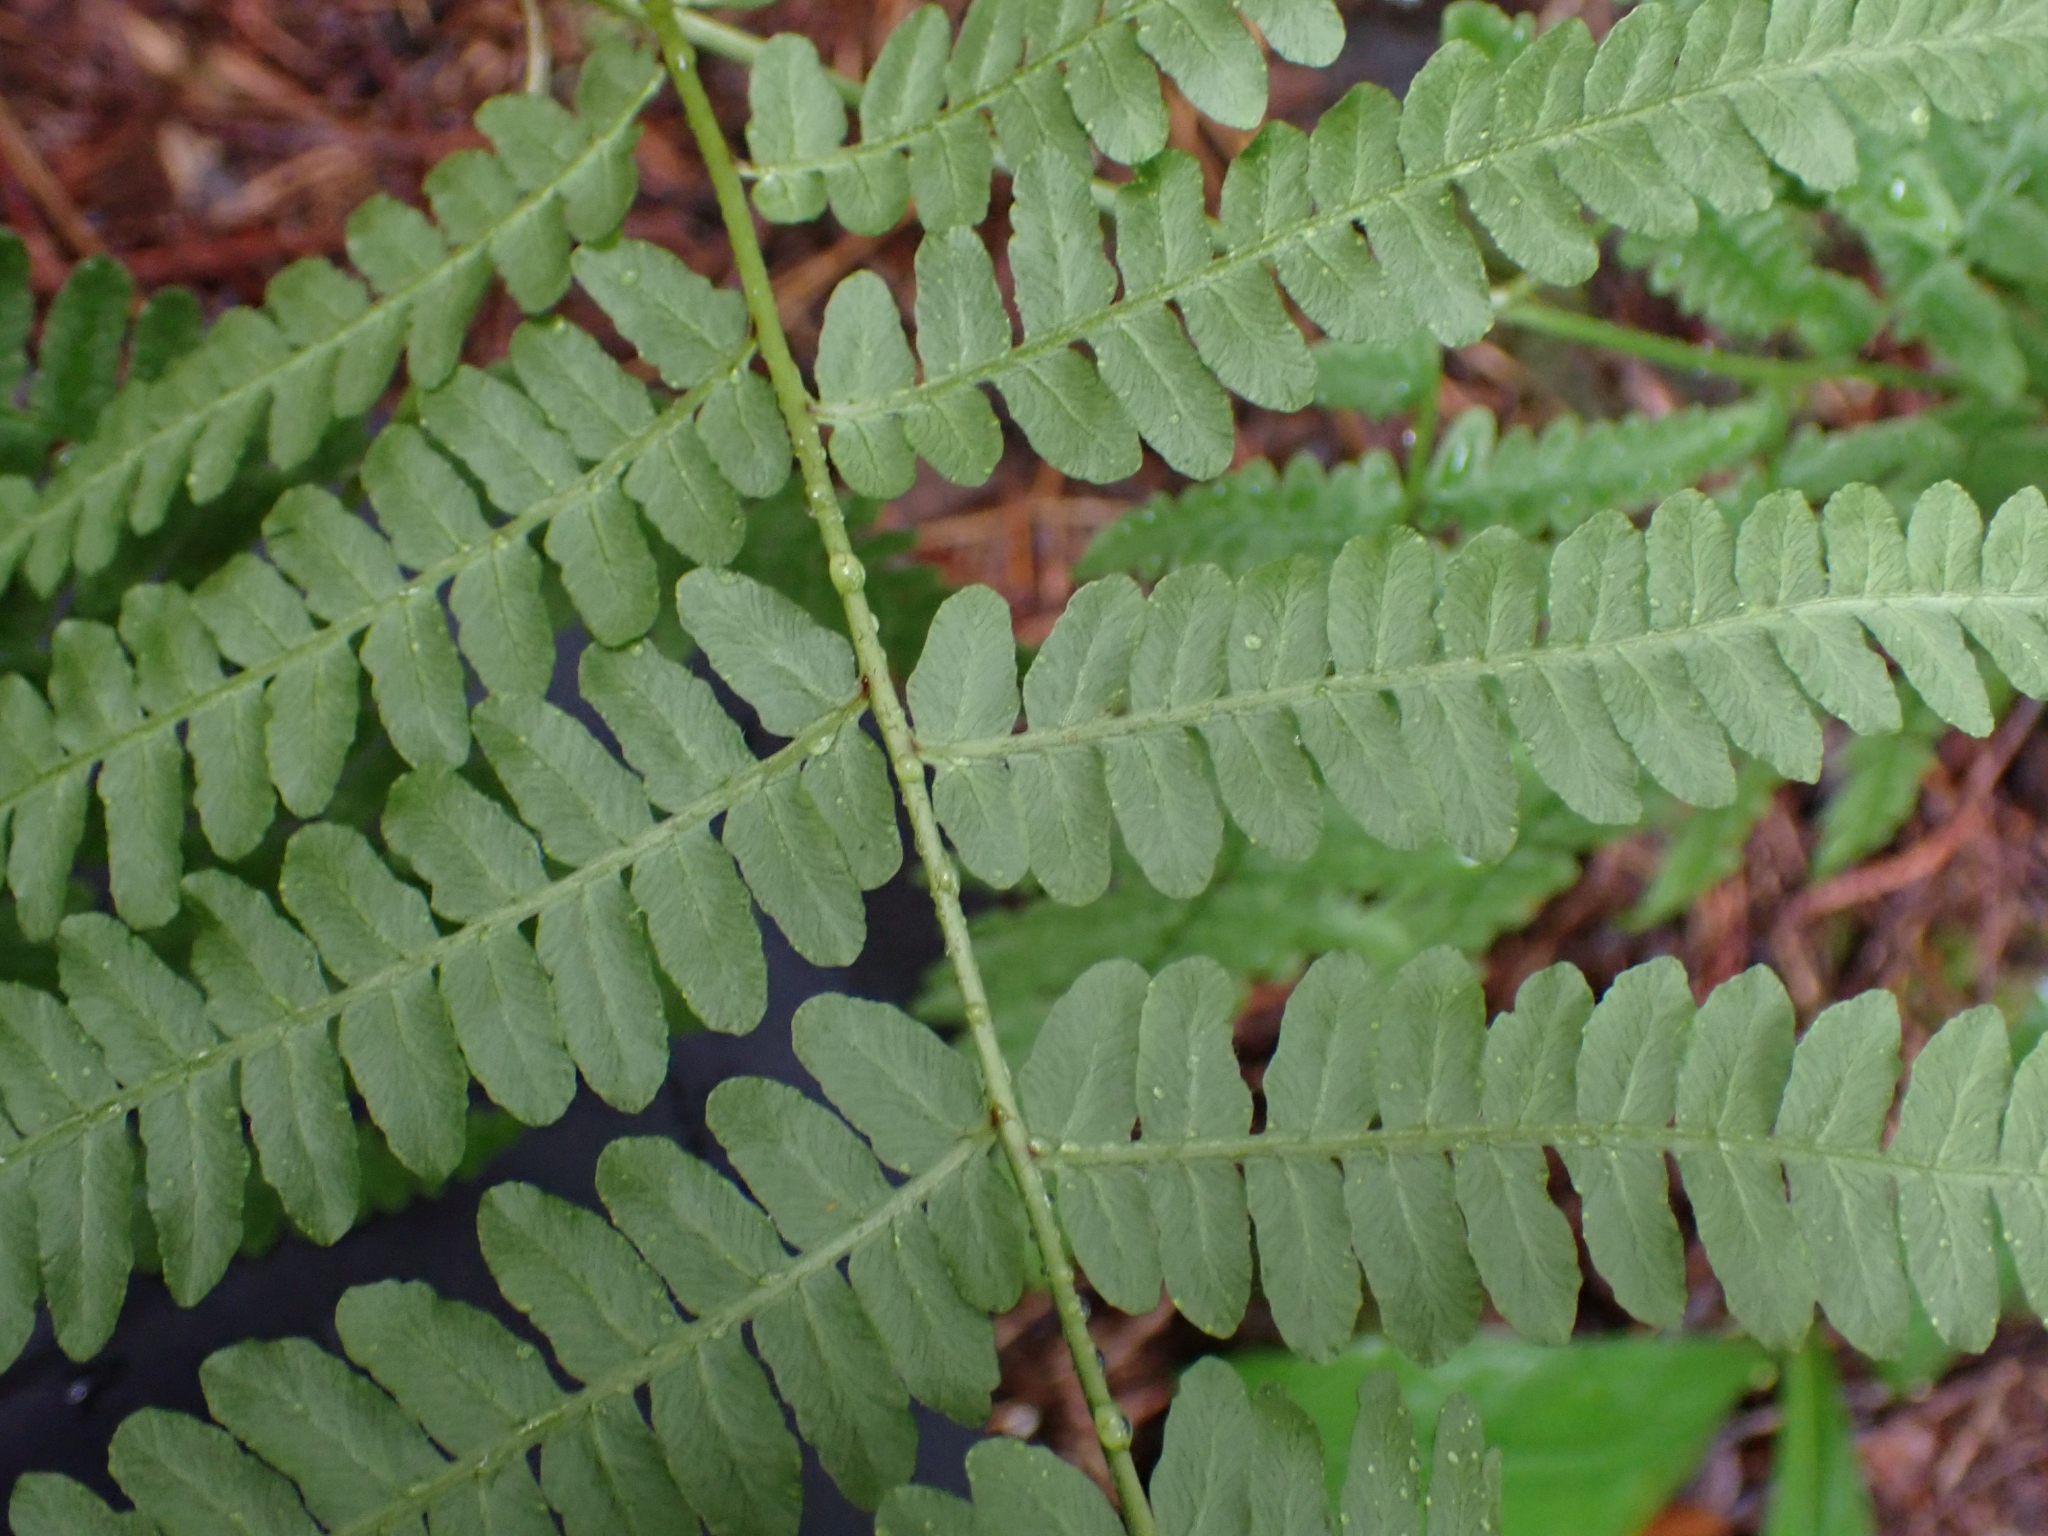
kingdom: Plantae
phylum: Tracheophyta
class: Polypodiopsida
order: Polypodiales
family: Dennstaedtiaceae
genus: Pteridium
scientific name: Pteridium aquilinum
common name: Bracken
